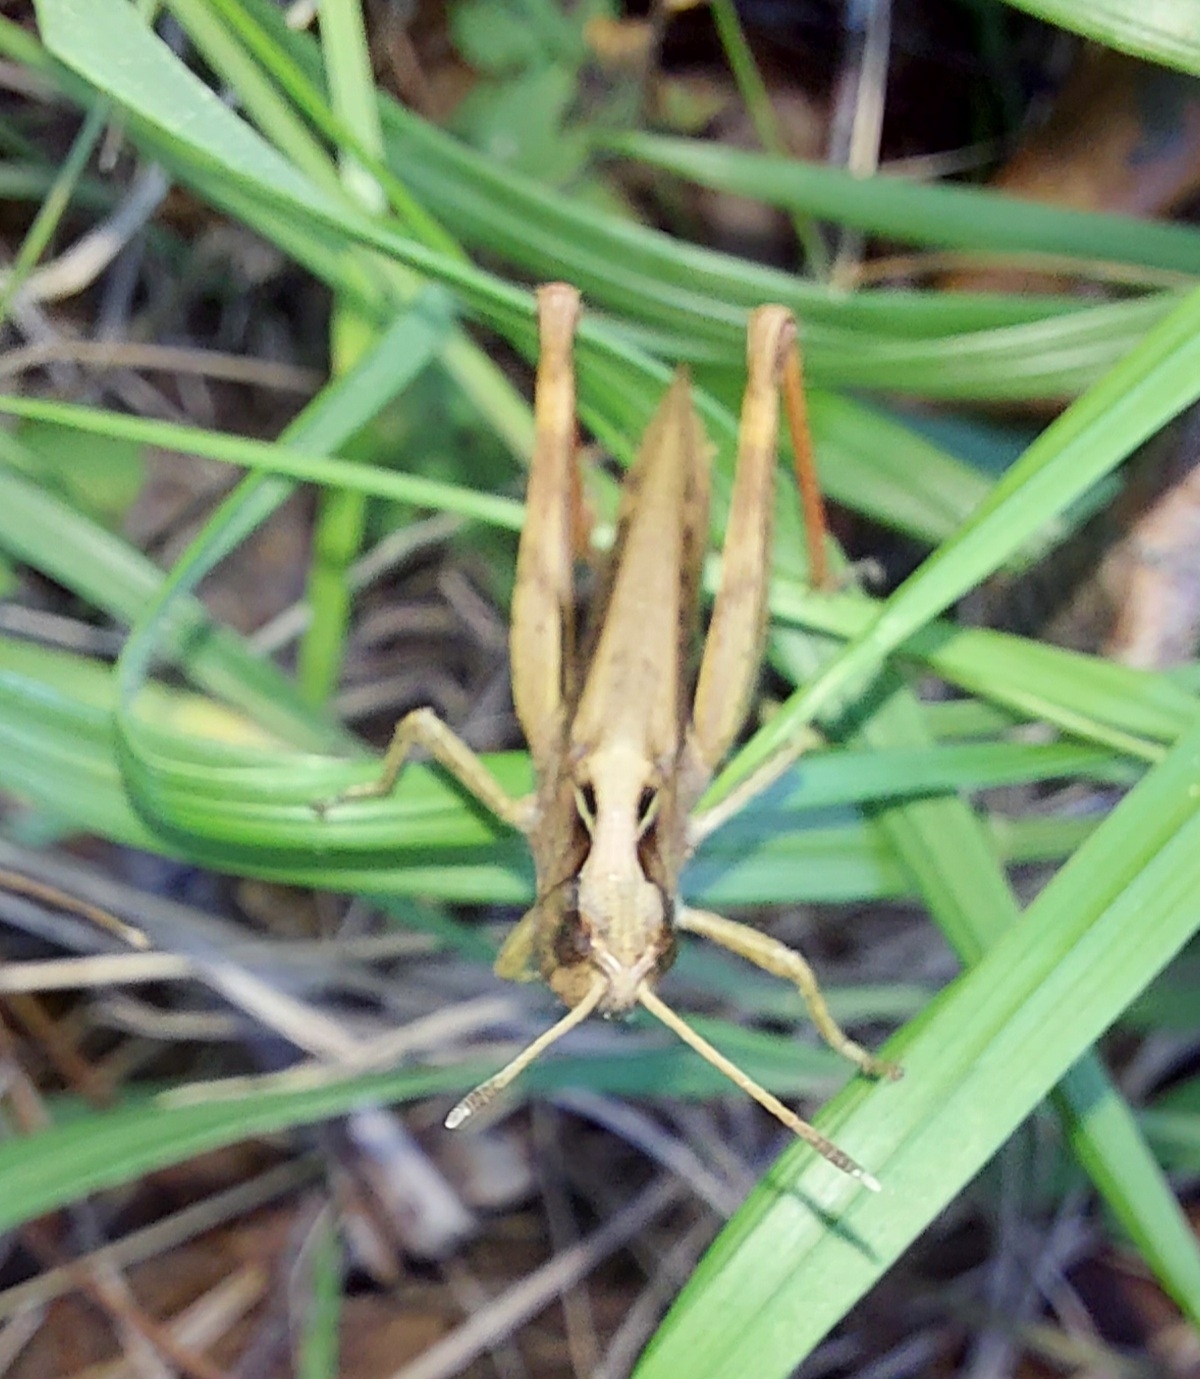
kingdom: Animalia
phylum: Arthropoda
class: Insecta
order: Orthoptera
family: Acrididae
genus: Gomphocerippus
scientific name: Gomphocerippus rufus
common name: Rufous grasshopper
